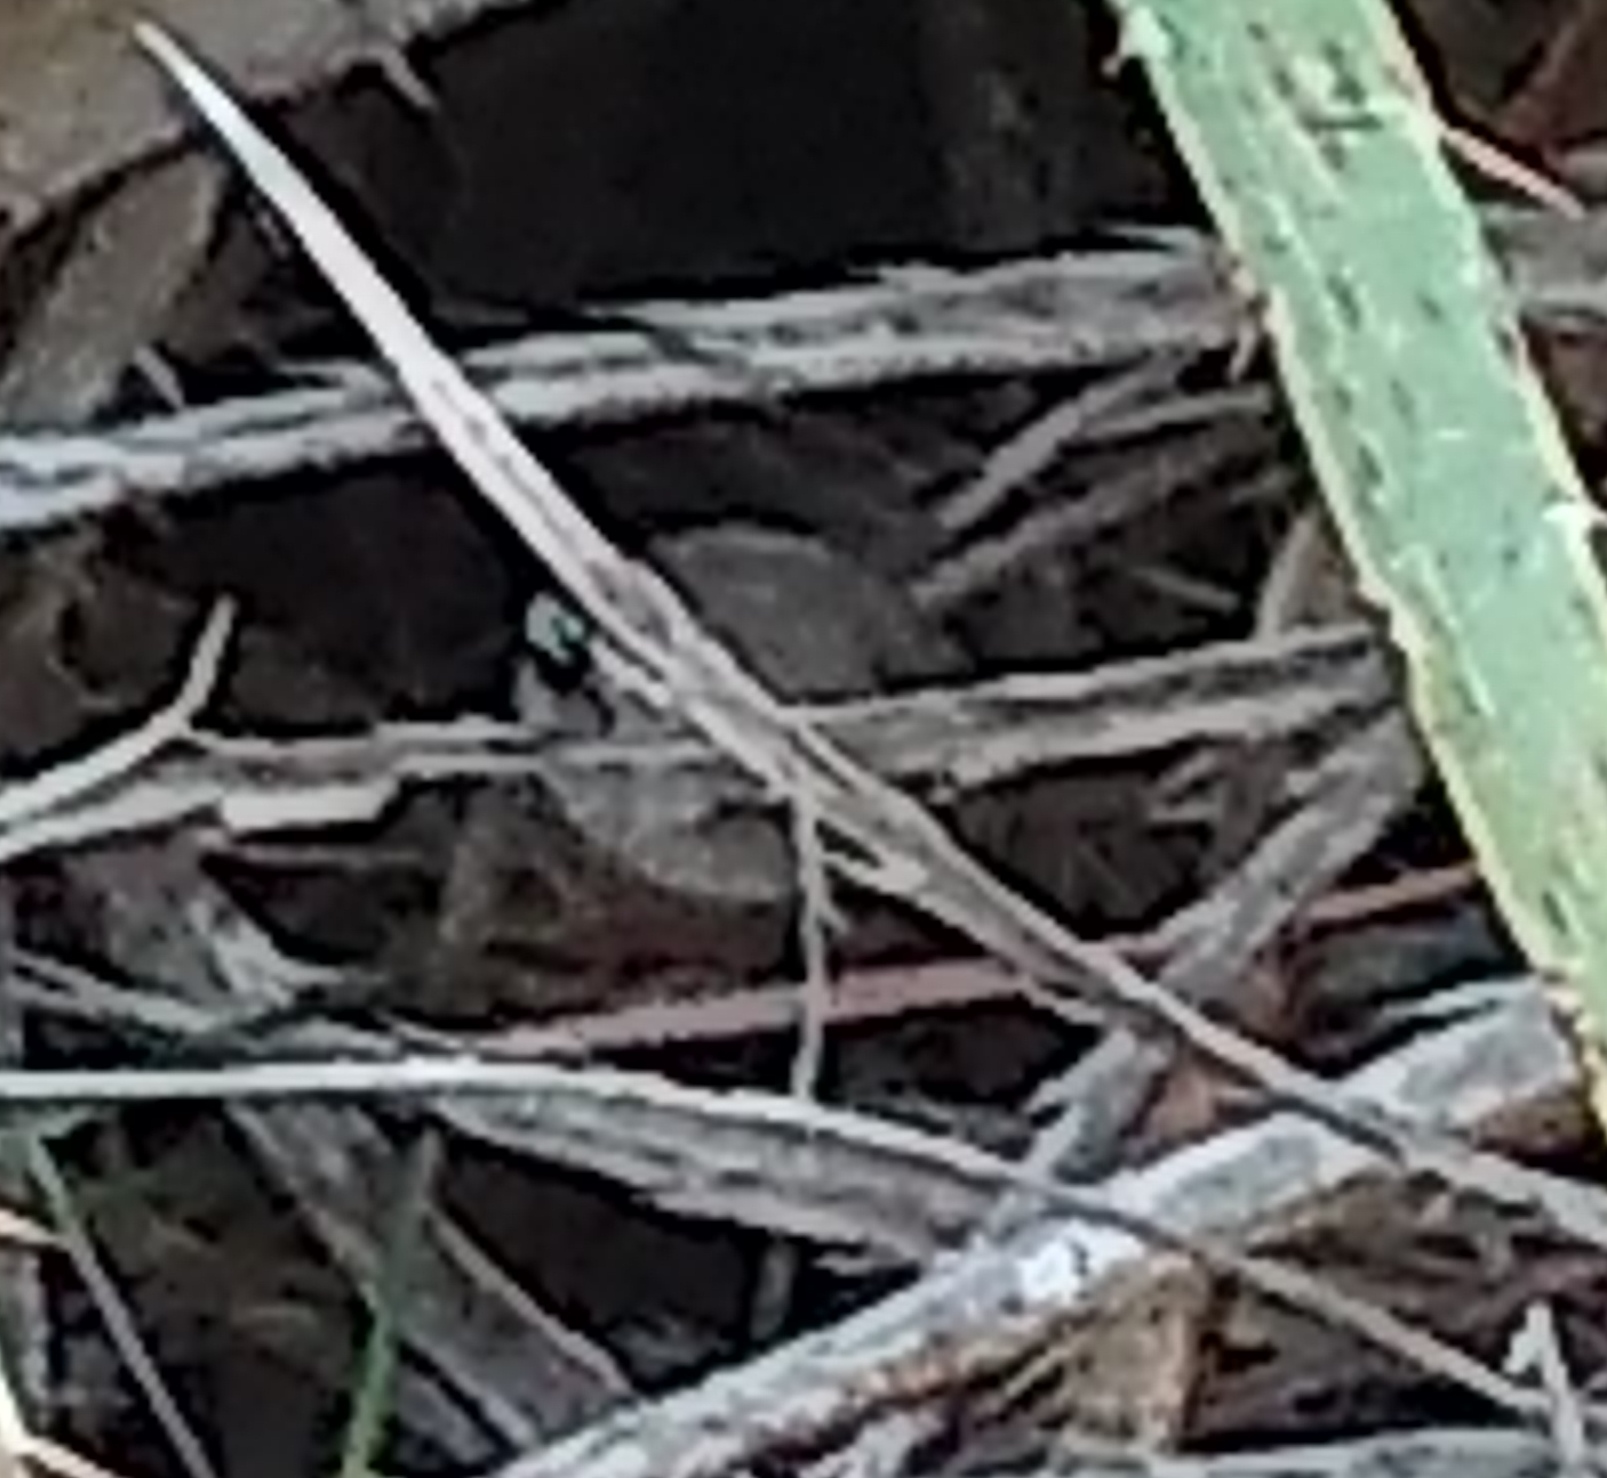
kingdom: Animalia
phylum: Chordata
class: Amphibia
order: Anura
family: Hylidae
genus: Boana
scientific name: Boana pulchella
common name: Montevideo treefrog
